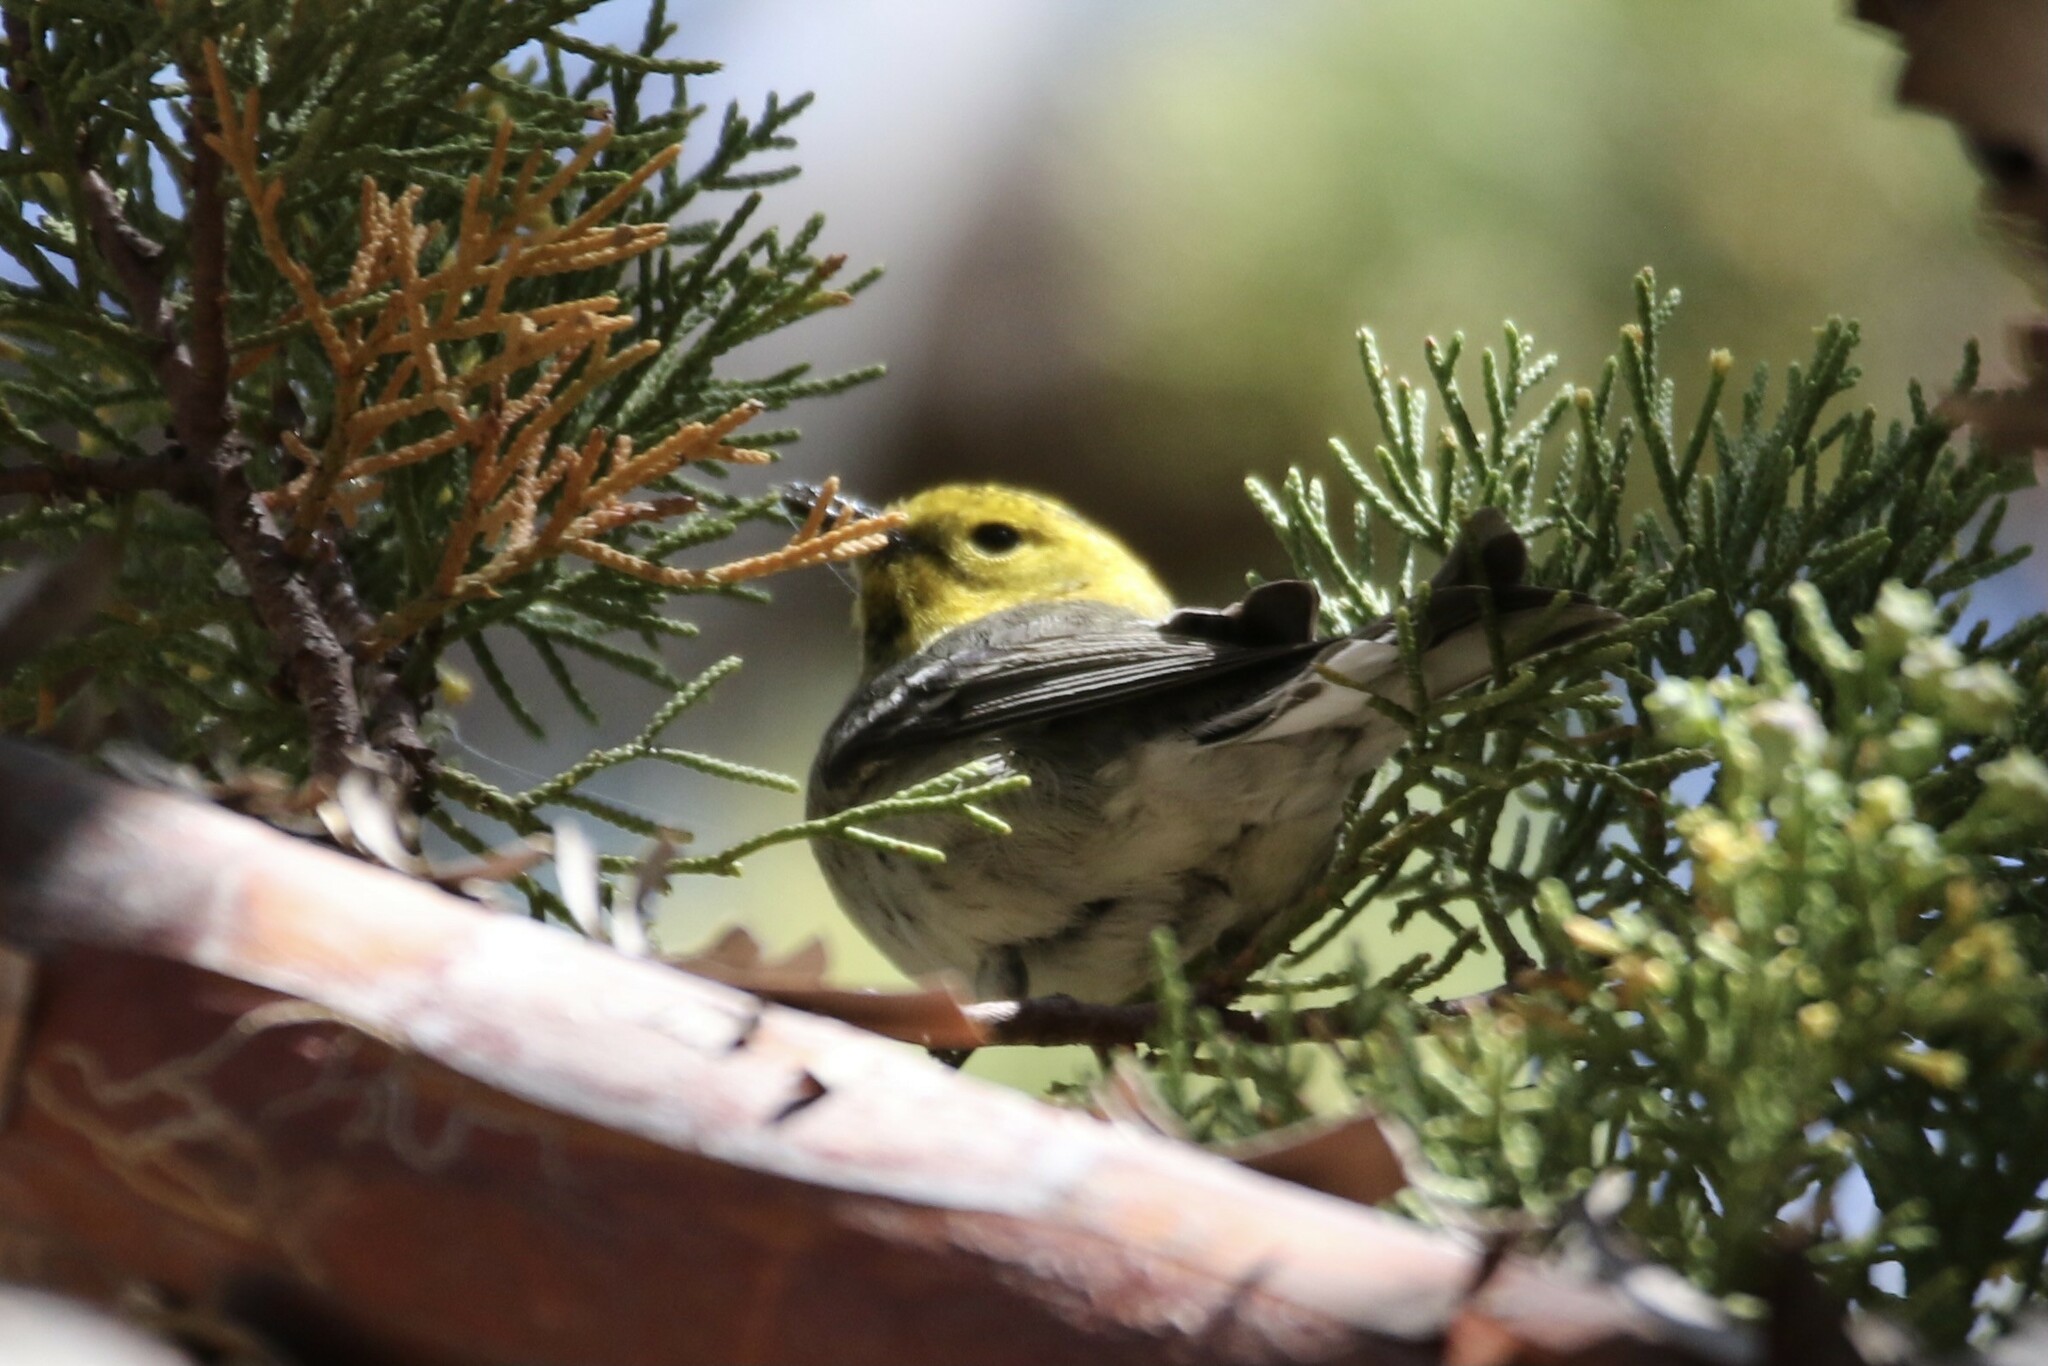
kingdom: Animalia
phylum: Chordata
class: Aves
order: Passeriformes
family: Parulidae
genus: Setophaga
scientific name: Setophaga occidentalis
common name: Hermit warbler
